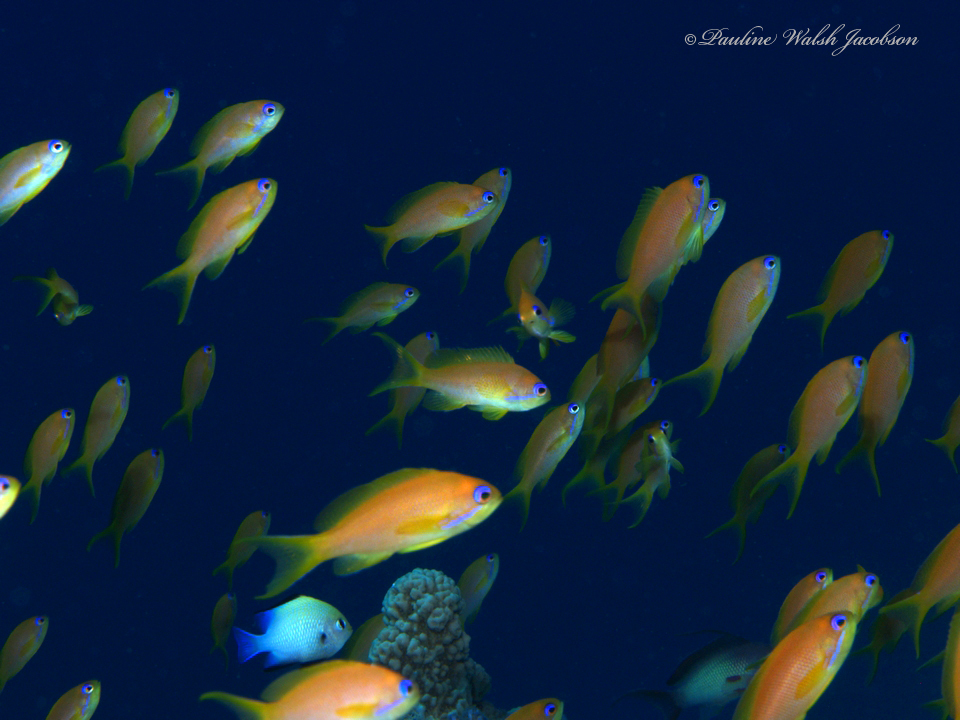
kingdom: Animalia
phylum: Chordata
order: Perciformes
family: Serranidae
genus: Pseudanthias
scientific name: Pseudanthias squamipinnis
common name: Scalefin anthias
